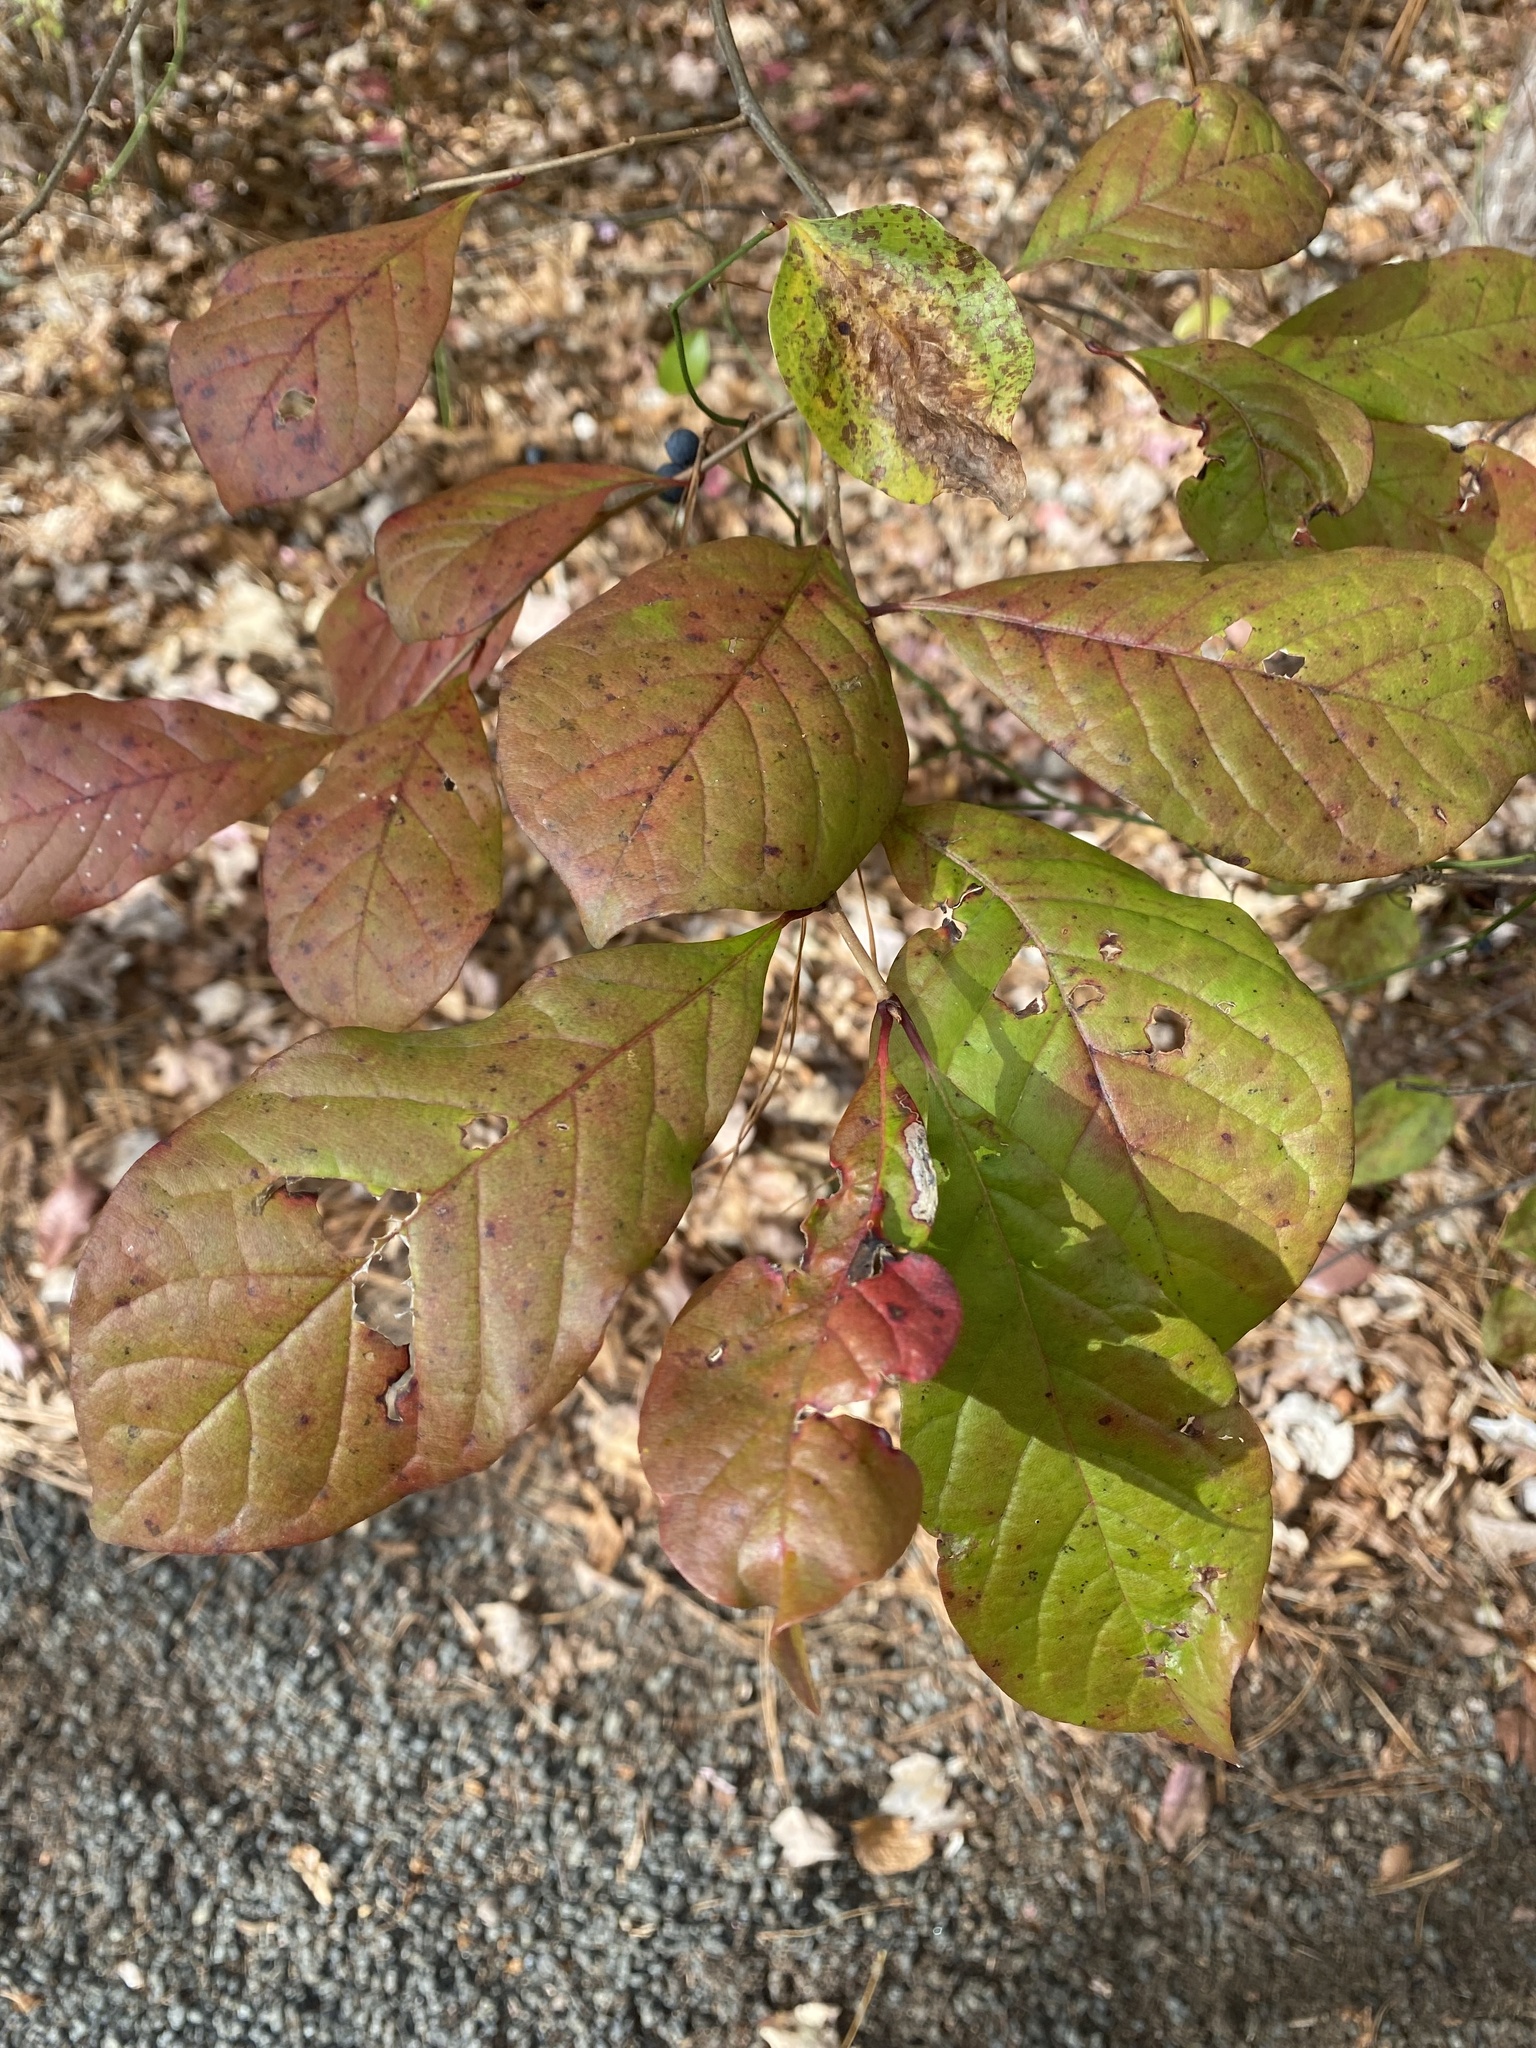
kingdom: Plantae
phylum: Tracheophyta
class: Magnoliopsida
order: Cornales
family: Nyssaceae
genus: Nyssa
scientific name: Nyssa sylvatica
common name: Black tupelo
